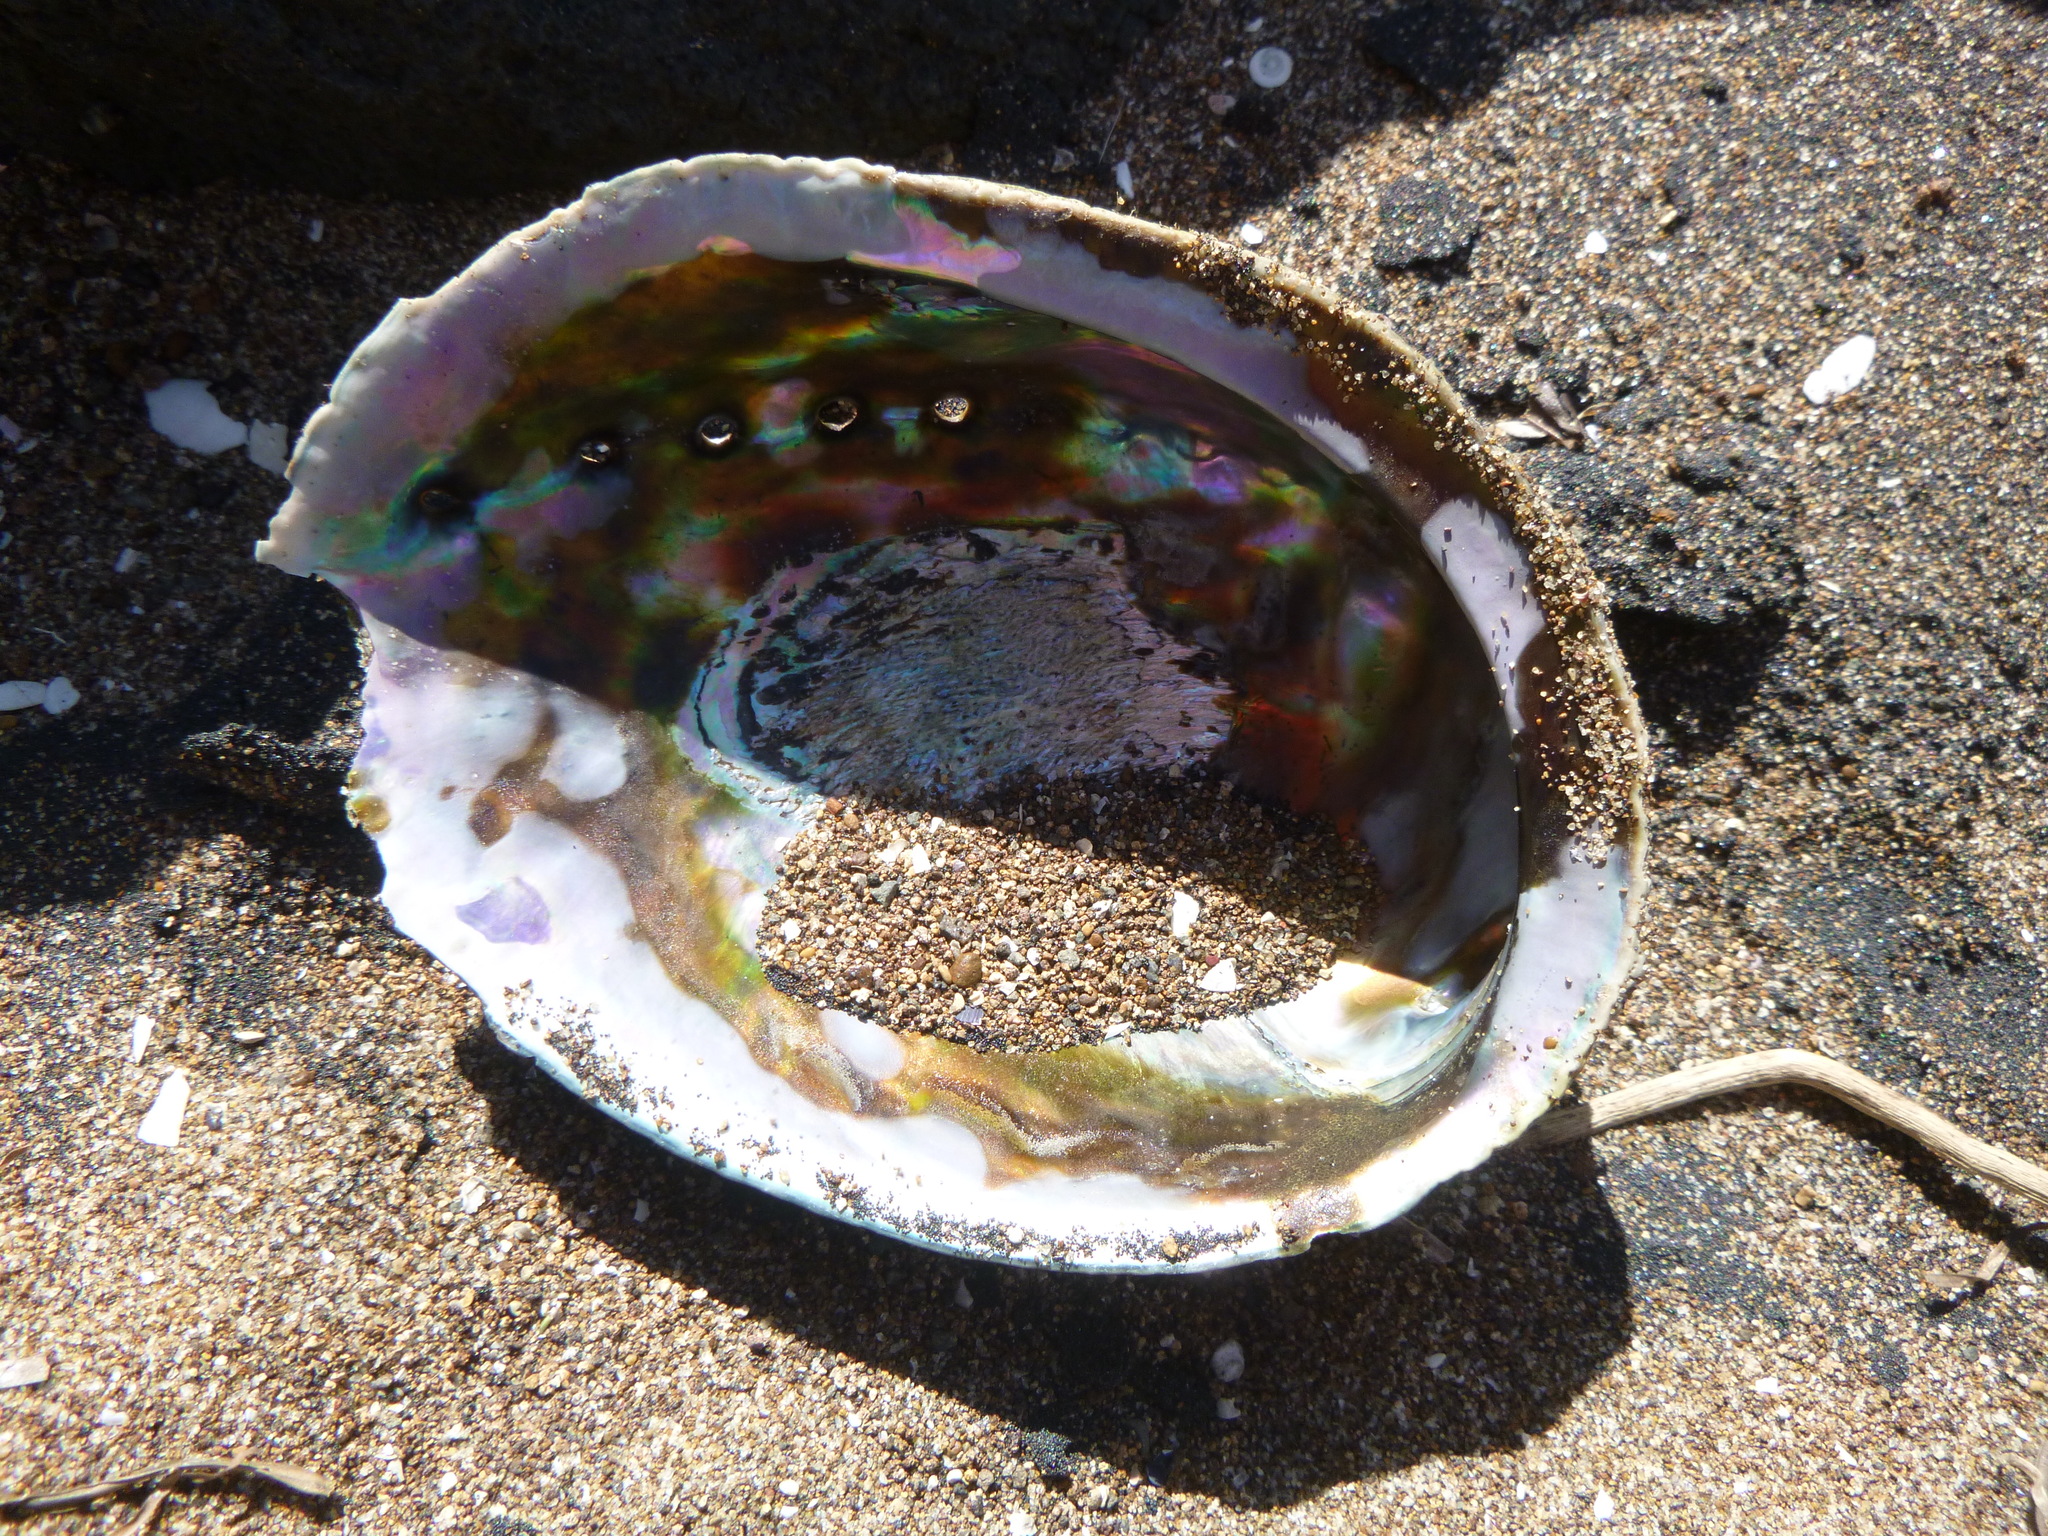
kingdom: Animalia
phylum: Mollusca
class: Gastropoda
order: Lepetellida
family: Haliotidae
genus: Haliotis
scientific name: Haliotis iris
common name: Abalone
